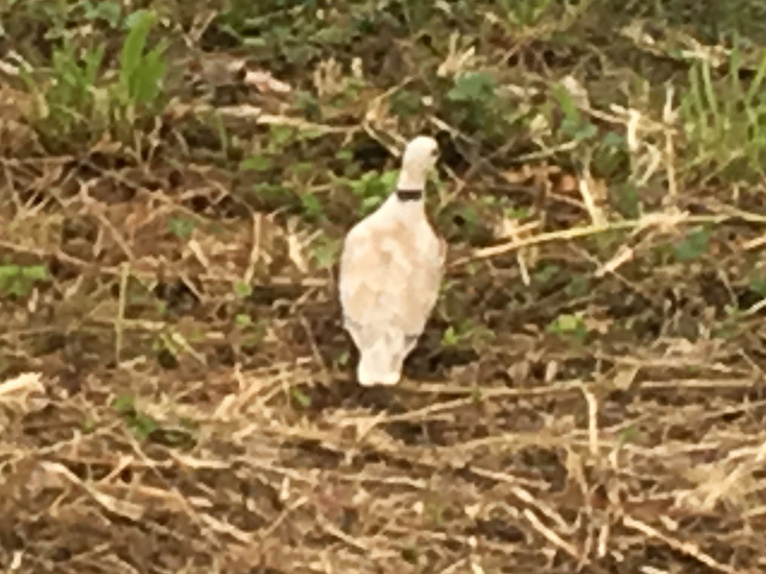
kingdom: Animalia
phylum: Chordata
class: Aves
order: Columbiformes
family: Columbidae
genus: Streptopelia
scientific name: Streptopelia roseogrisea
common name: African collared dove
